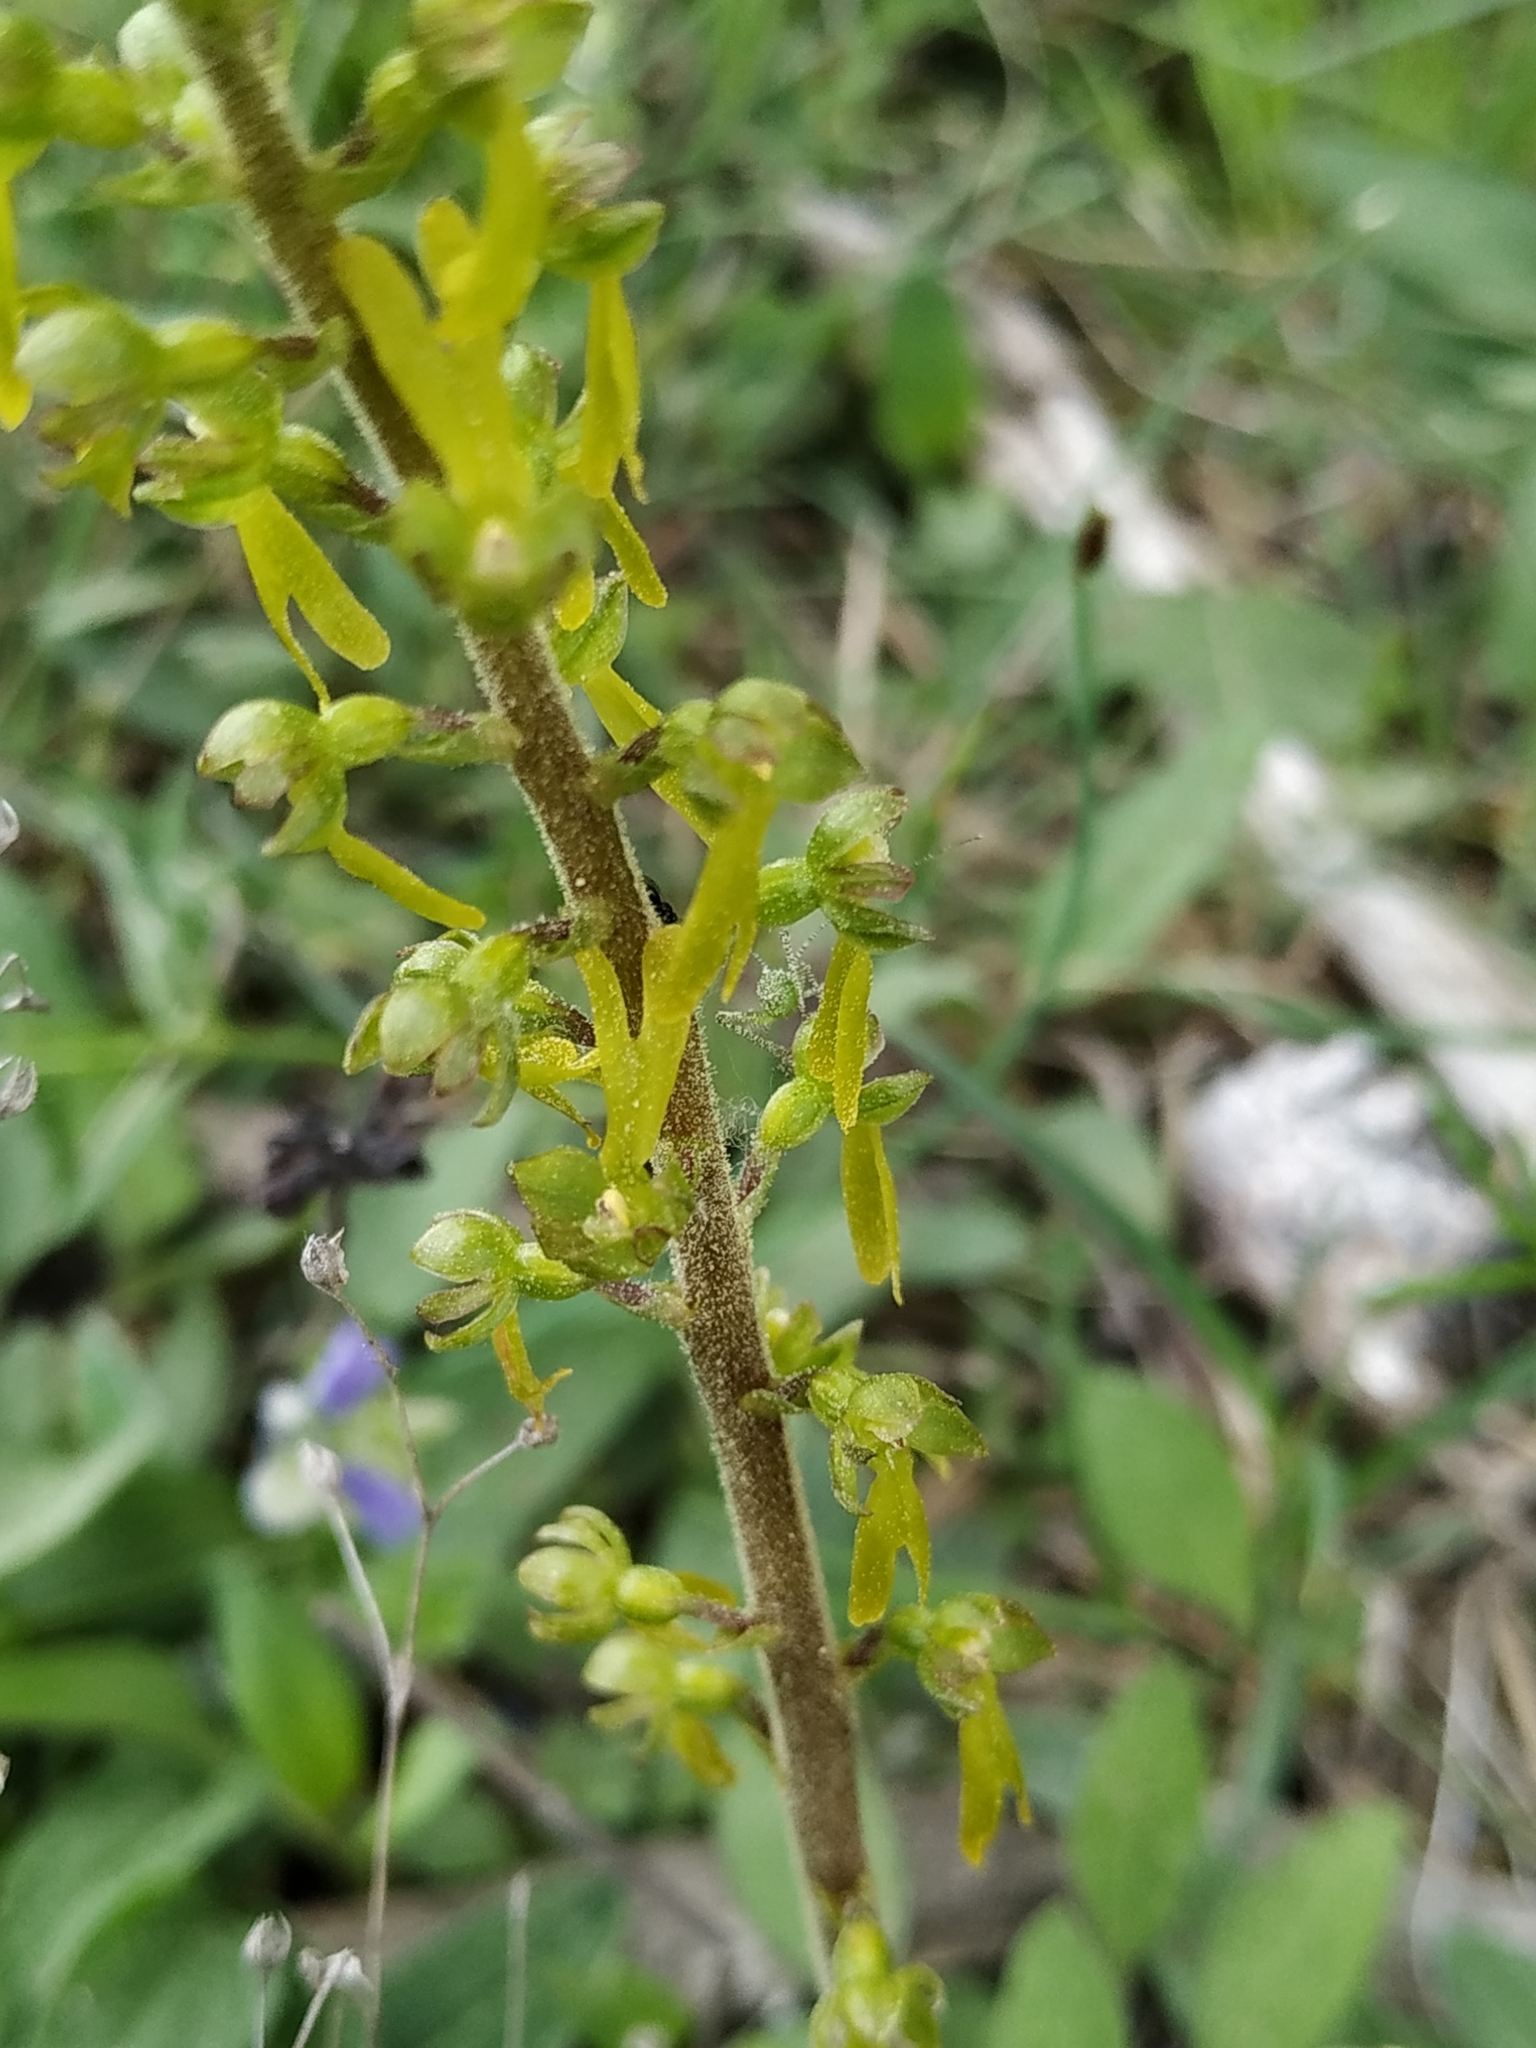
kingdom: Plantae
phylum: Tracheophyta
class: Liliopsida
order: Asparagales
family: Orchidaceae
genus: Neottia
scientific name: Neottia ovata
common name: Common twayblade
